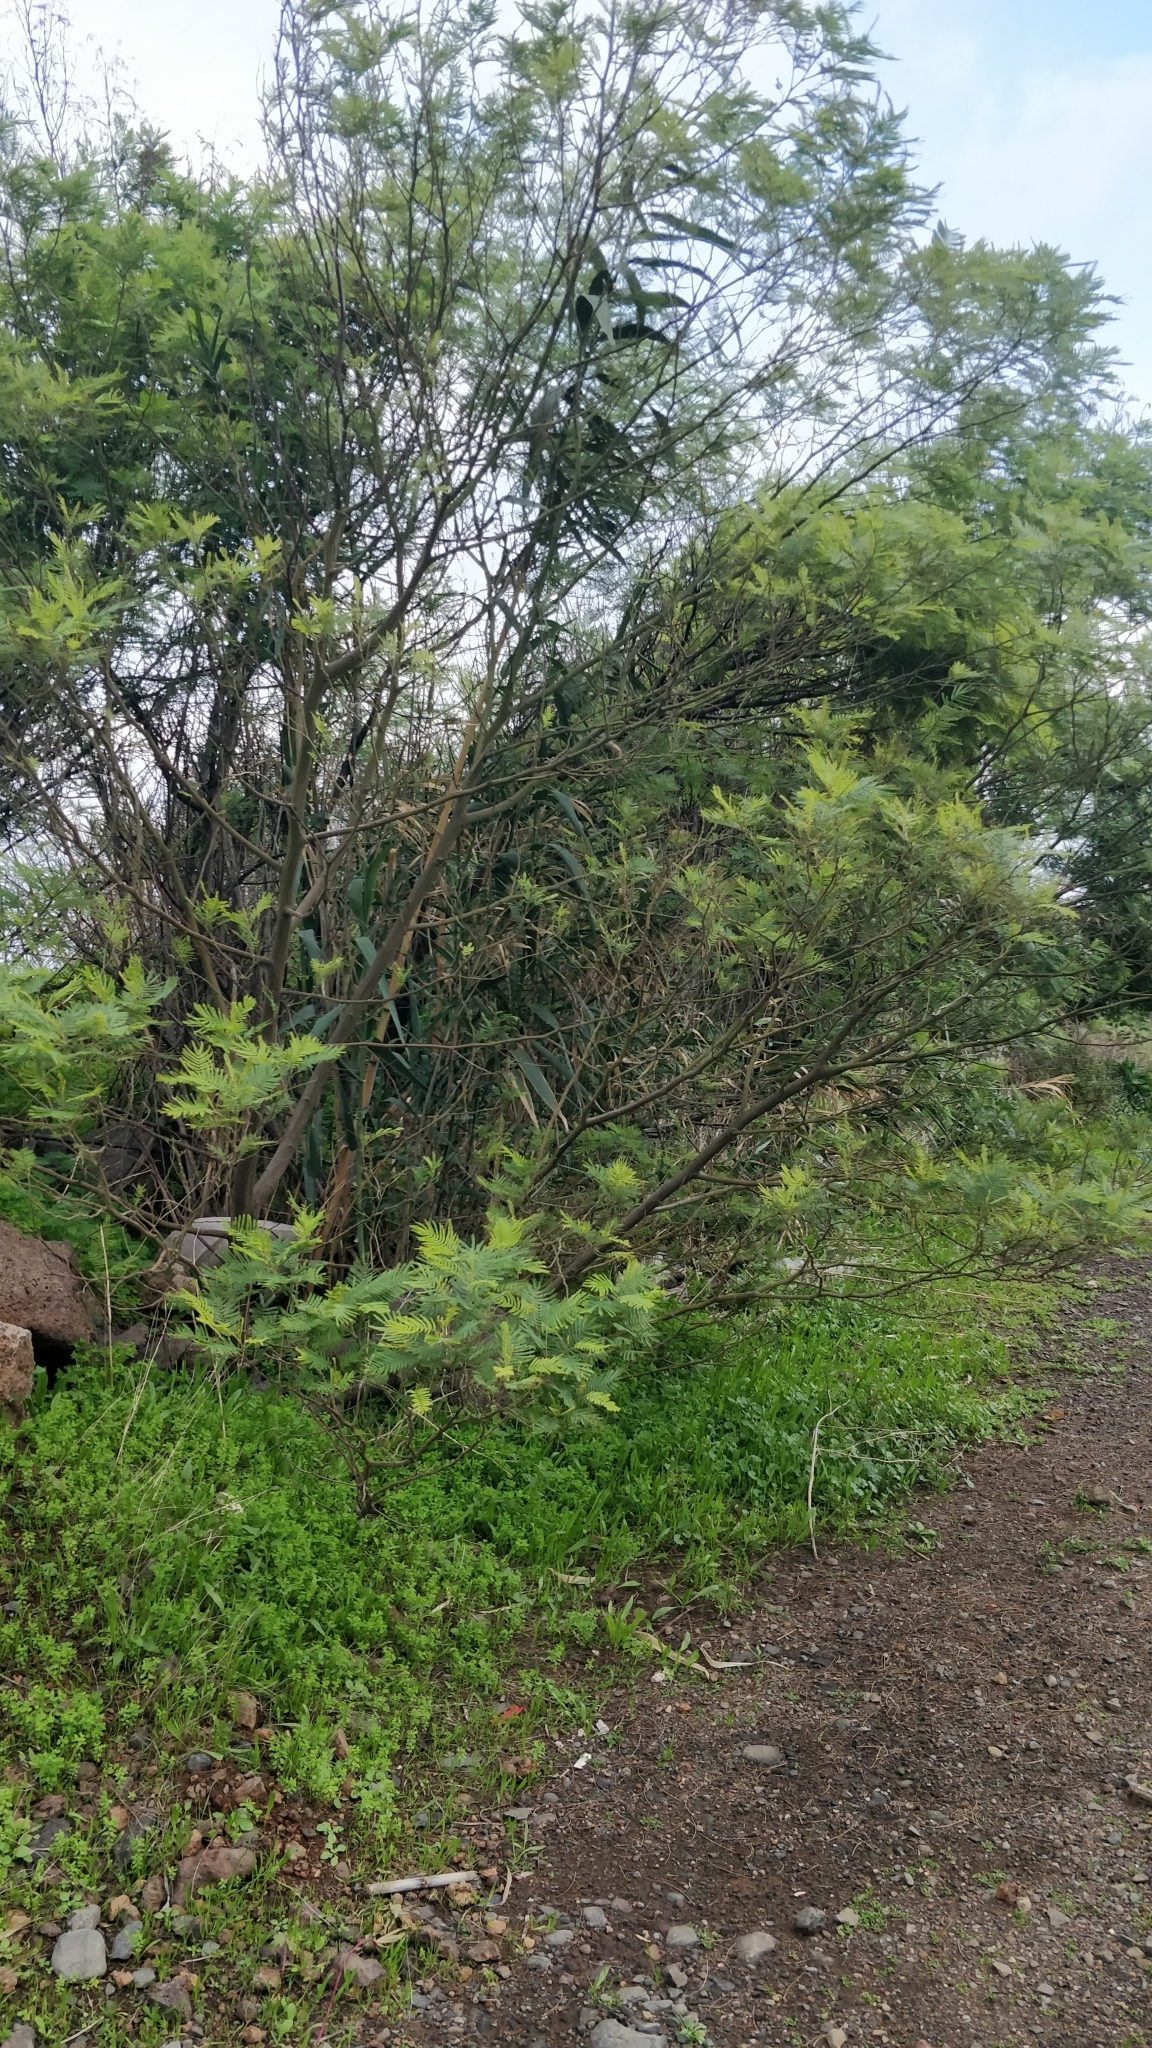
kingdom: Plantae
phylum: Tracheophyta
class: Magnoliopsida
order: Fabales
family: Fabaceae
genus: Acacia
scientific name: Acacia mearnsii
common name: Black wattle
